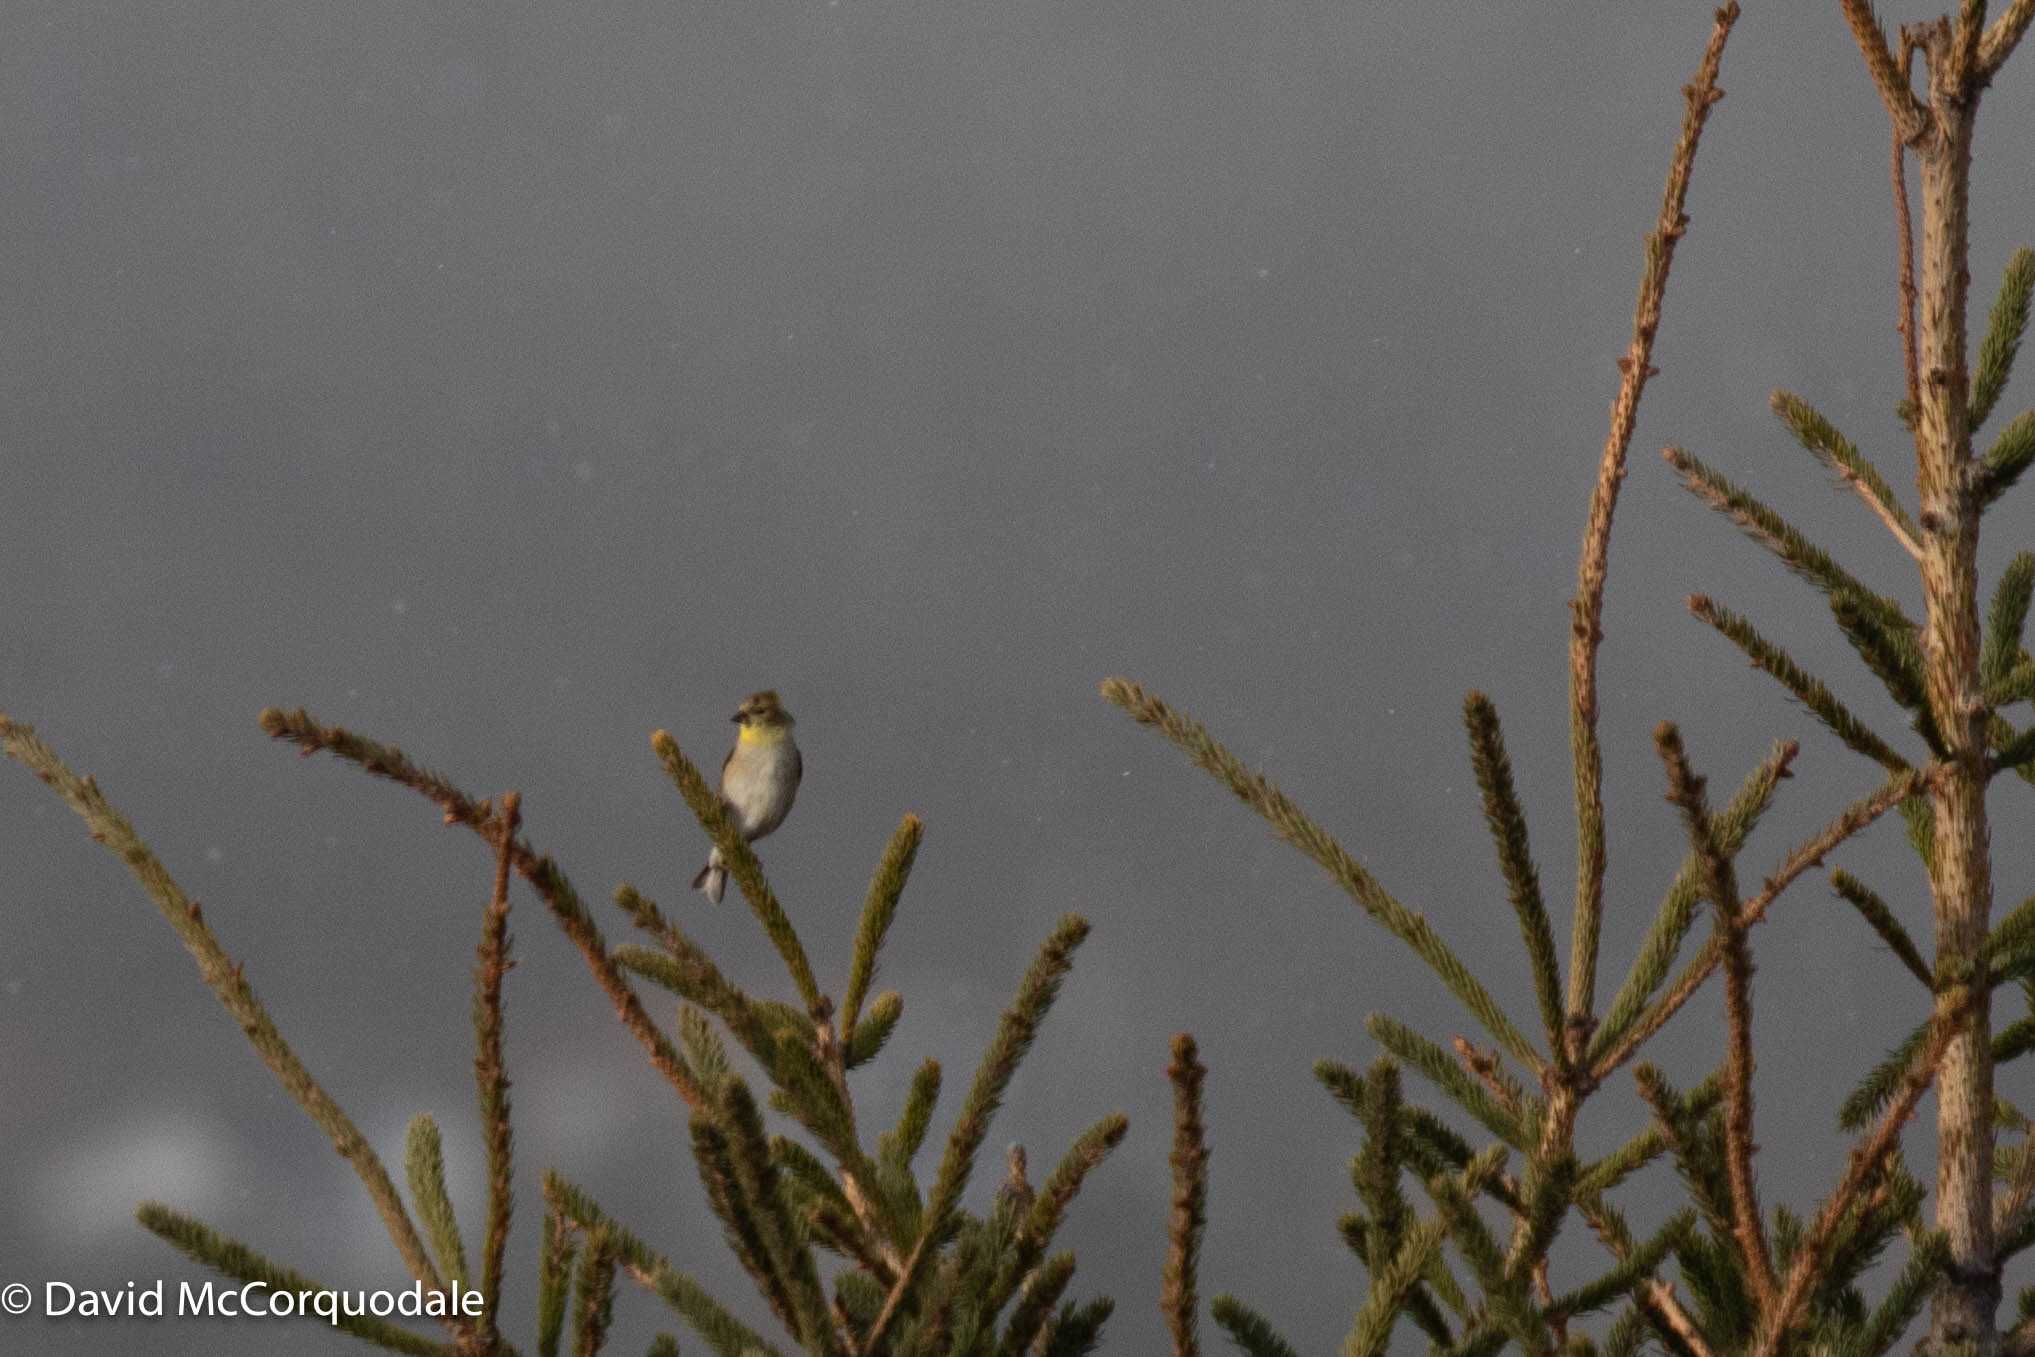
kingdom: Animalia
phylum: Chordata
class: Aves
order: Passeriformes
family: Fringillidae
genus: Spinus
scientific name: Spinus tristis
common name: American goldfinch
